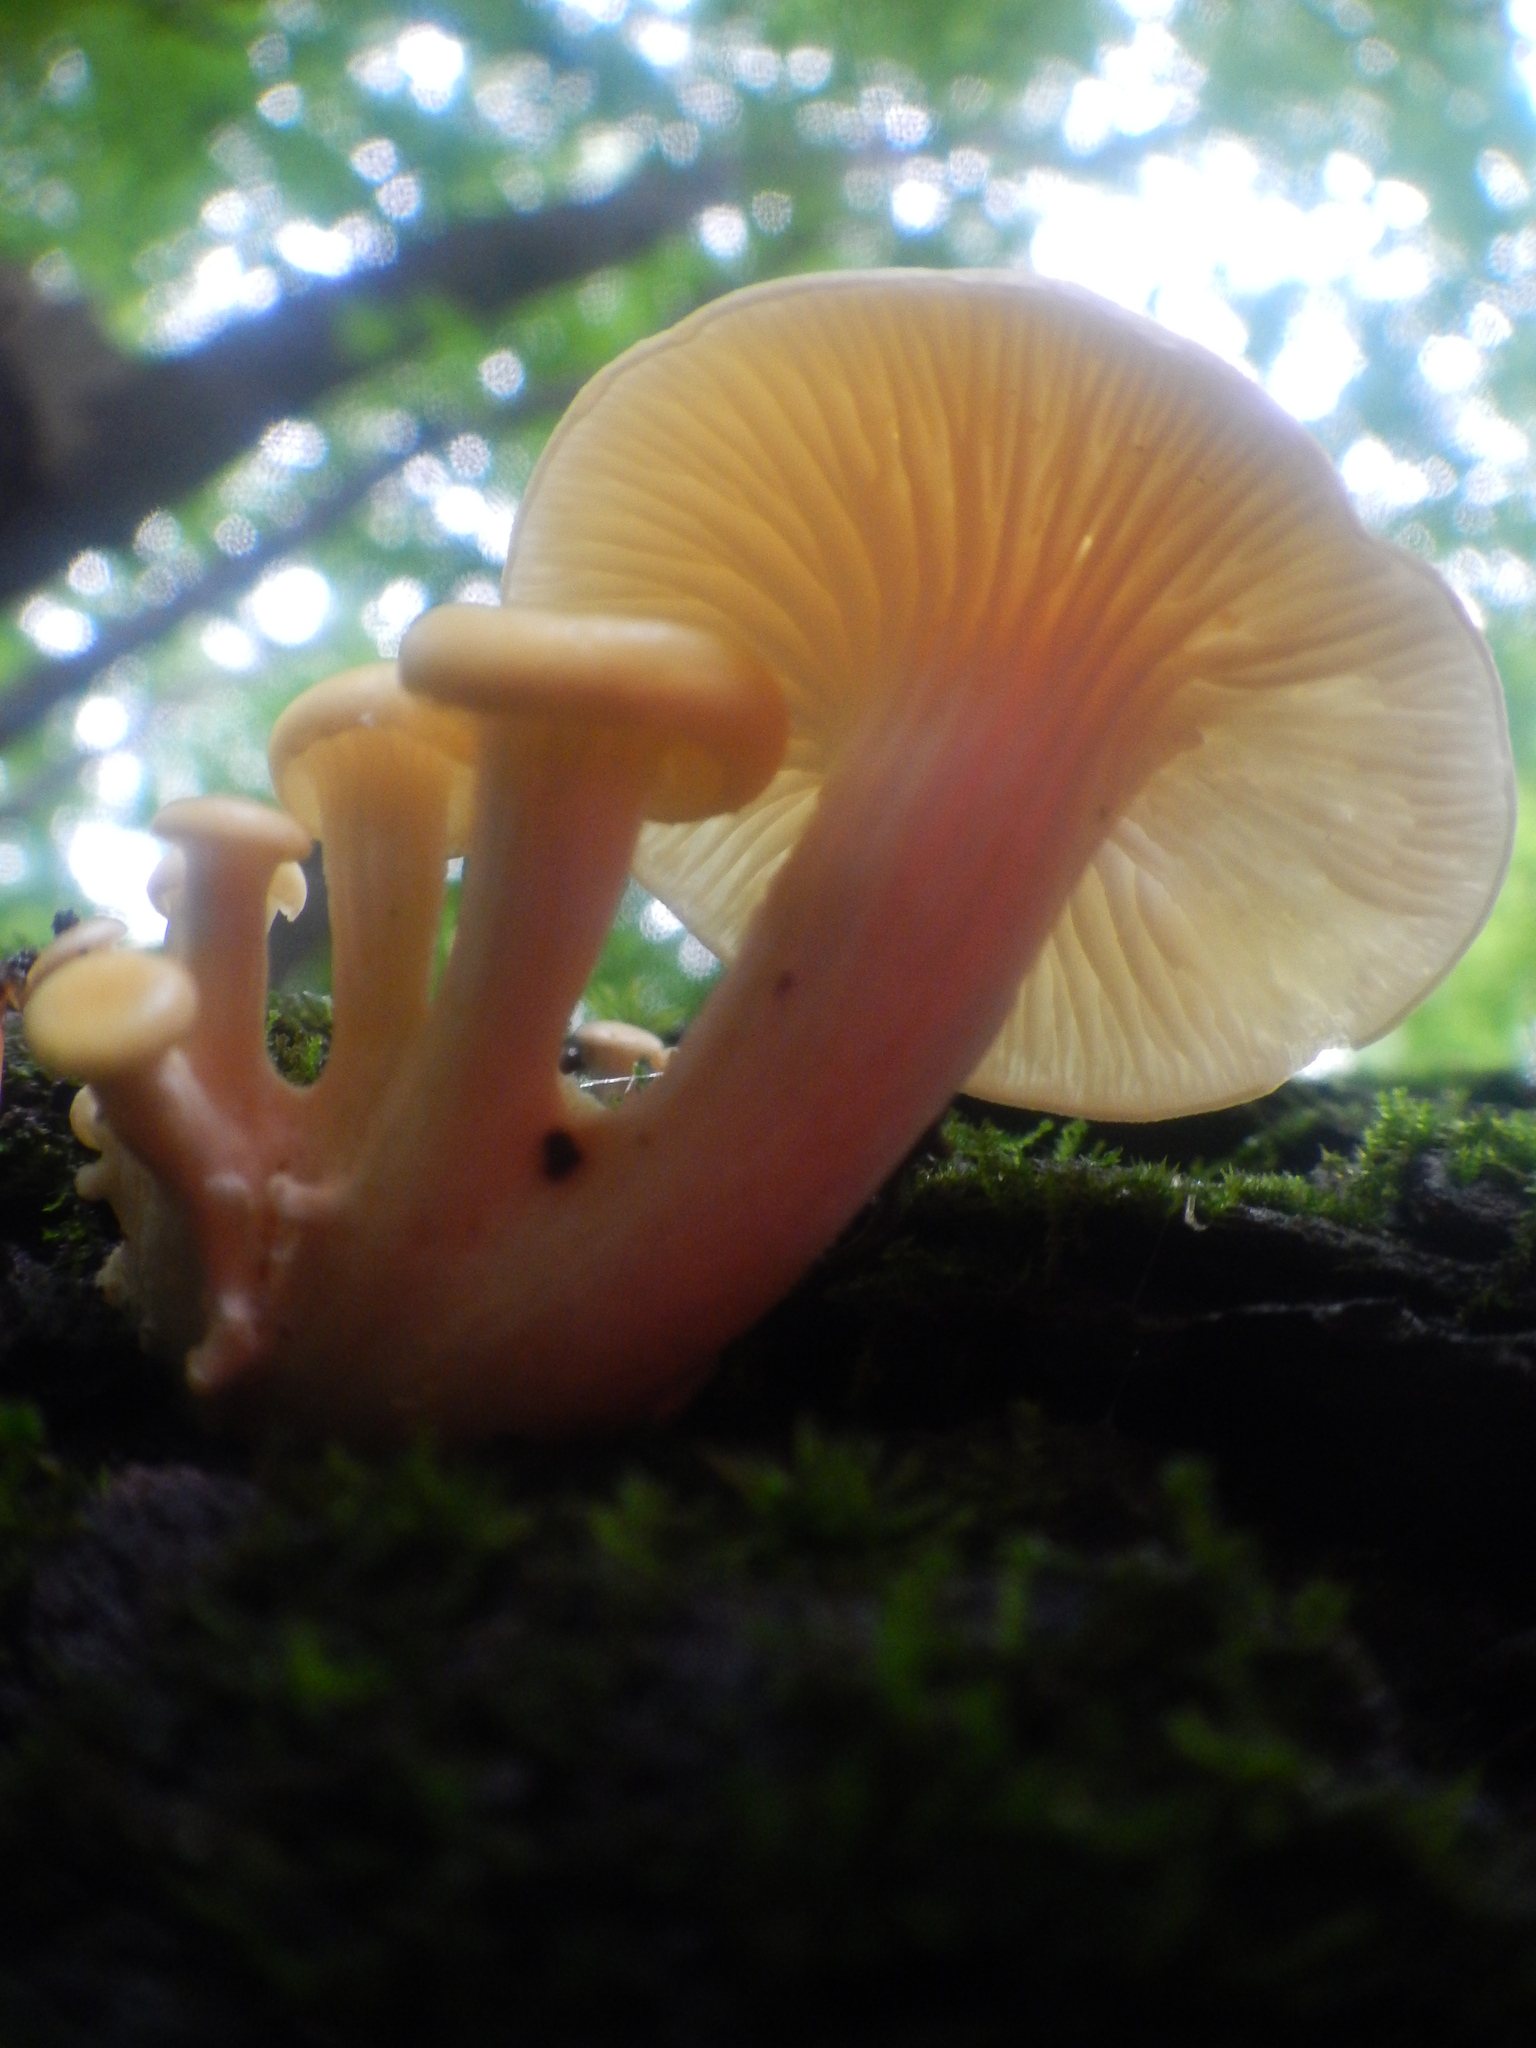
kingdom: Fungi
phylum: Basidiomycota
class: Agaricomycetes
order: Agaricales
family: Pleurotaceae
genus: Pleurotus
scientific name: Pleurotus citrinopileatus
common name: Golden oyster mushroom
